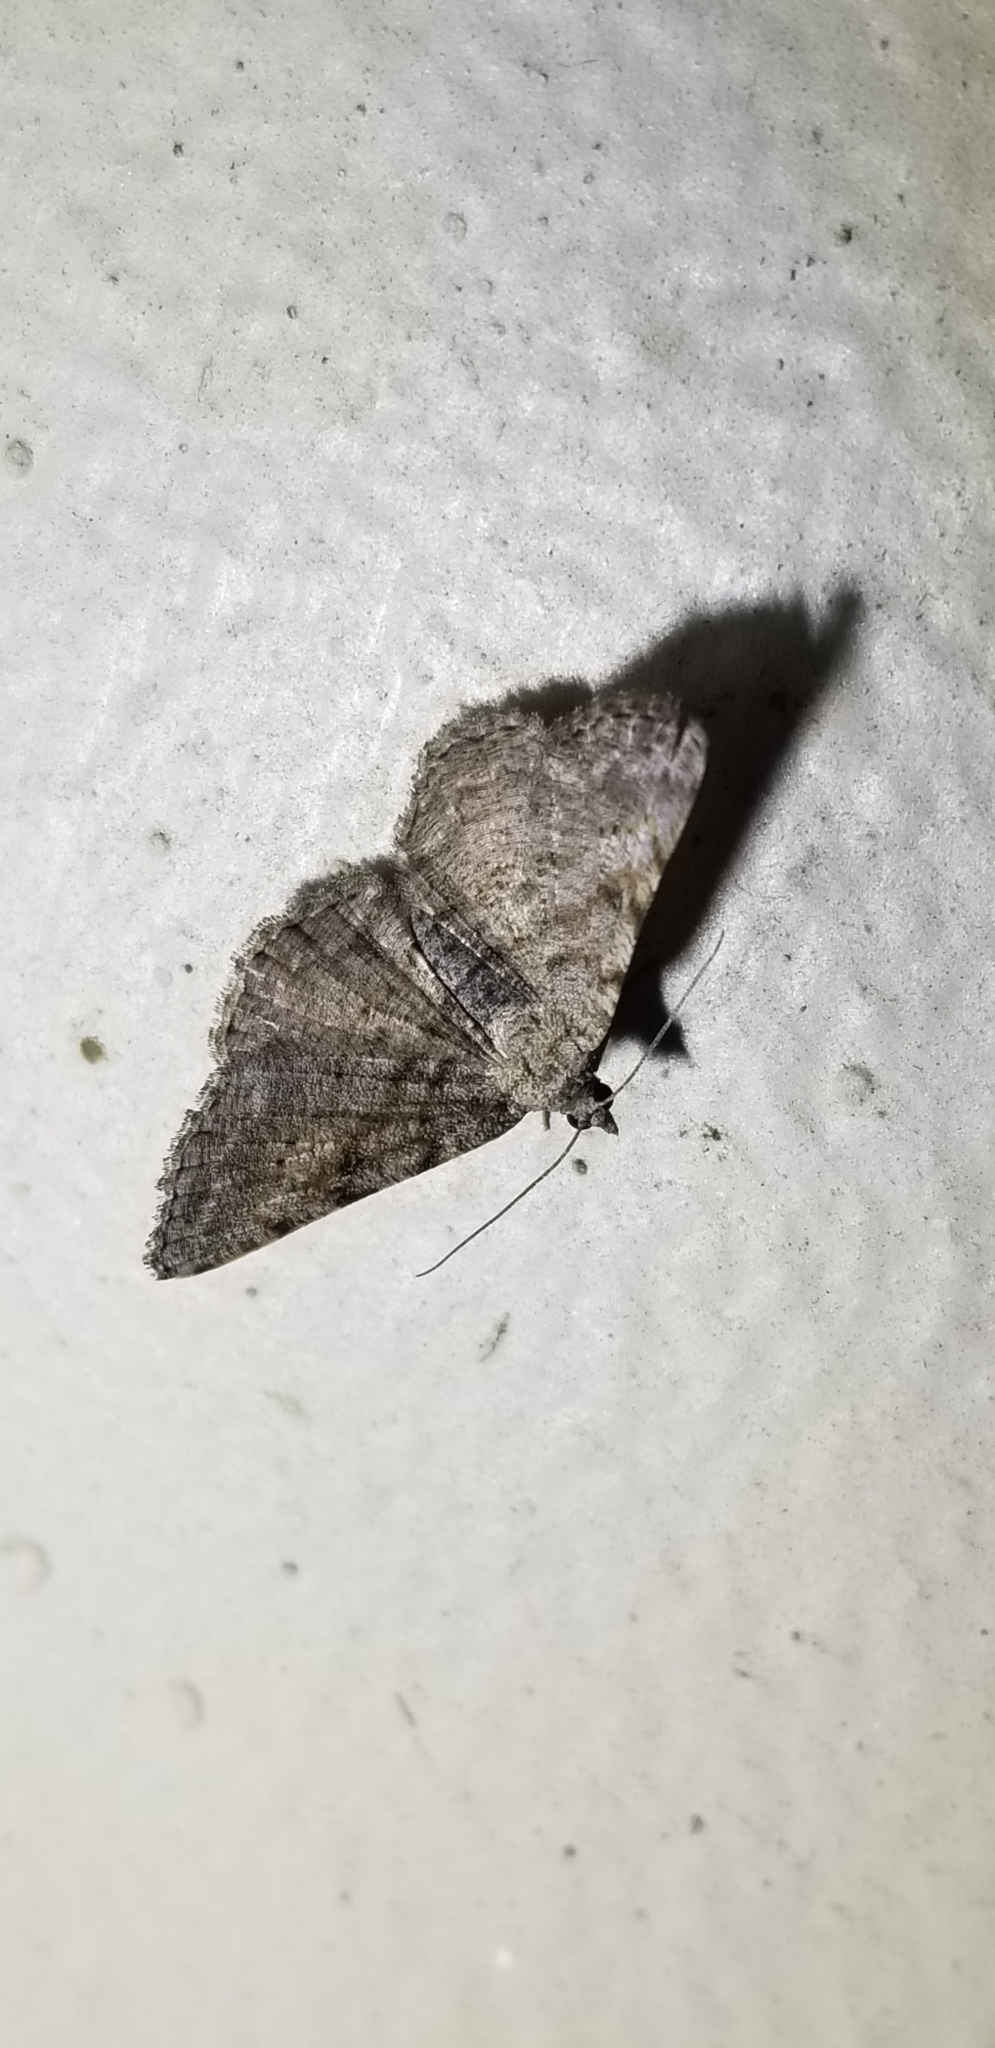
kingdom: Animalia
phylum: Arthropoda
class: Insecta
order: Lepidoptera
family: Geometridae
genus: Digrammia
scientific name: Digrammia gnophosaria
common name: Hollow-spotted angle
